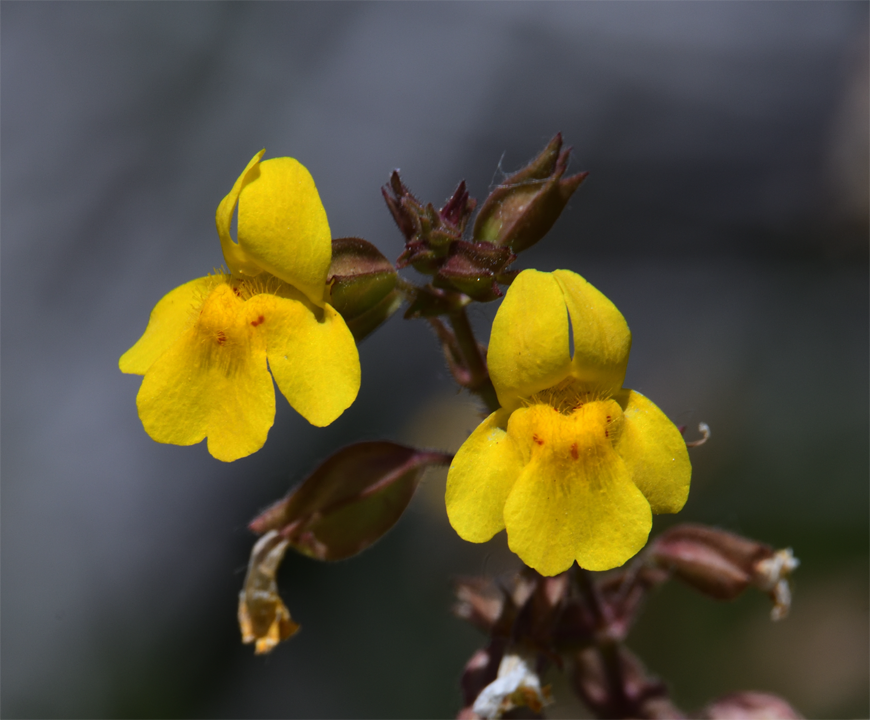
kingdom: Plantae
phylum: Tracheophyta
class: Magnoliopsida
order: Lamiales
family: Phrymaceae
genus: Erythranthe
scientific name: Erythranthe guttata
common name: Monkeyflower
